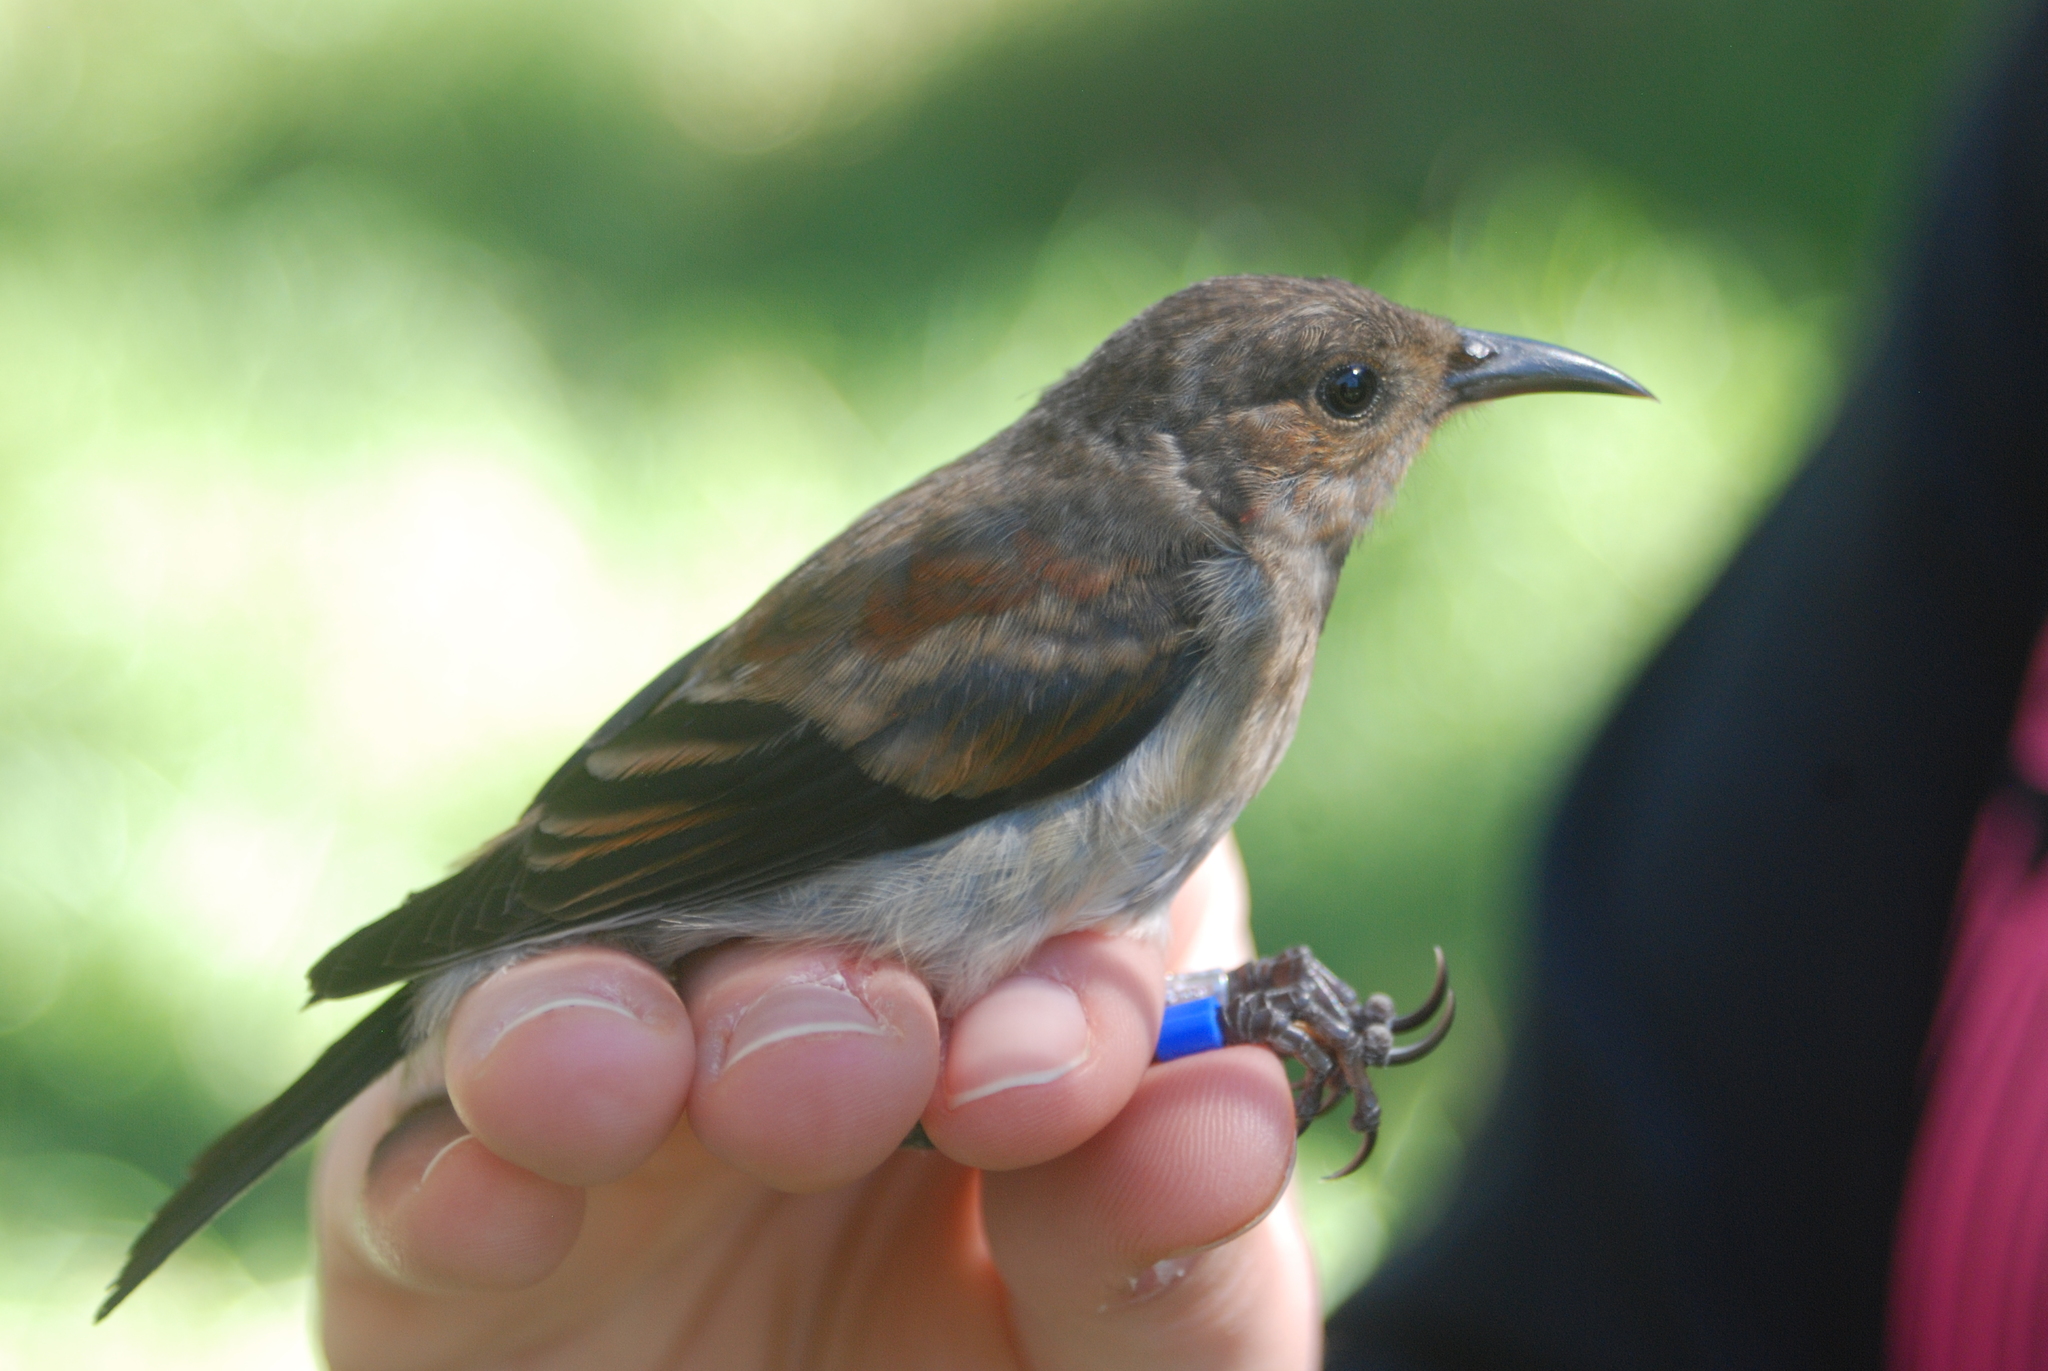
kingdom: Animalia
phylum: Chordata
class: Aves
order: Passeriformes
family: Fringillidae
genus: Himatione
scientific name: Himatione sanguinea
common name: Apapane
